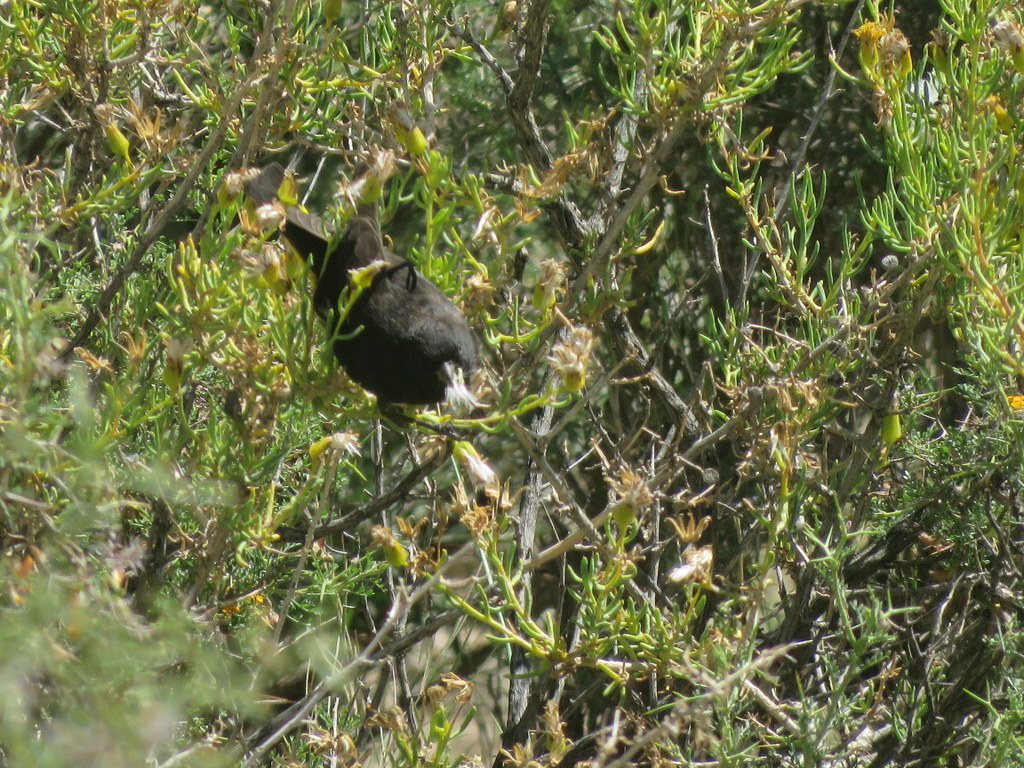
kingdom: Animalia
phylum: Chordata
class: Aves
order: Passeriformes
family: Fringillidae
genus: Spinus
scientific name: Spinus atratus
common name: Black siskin
